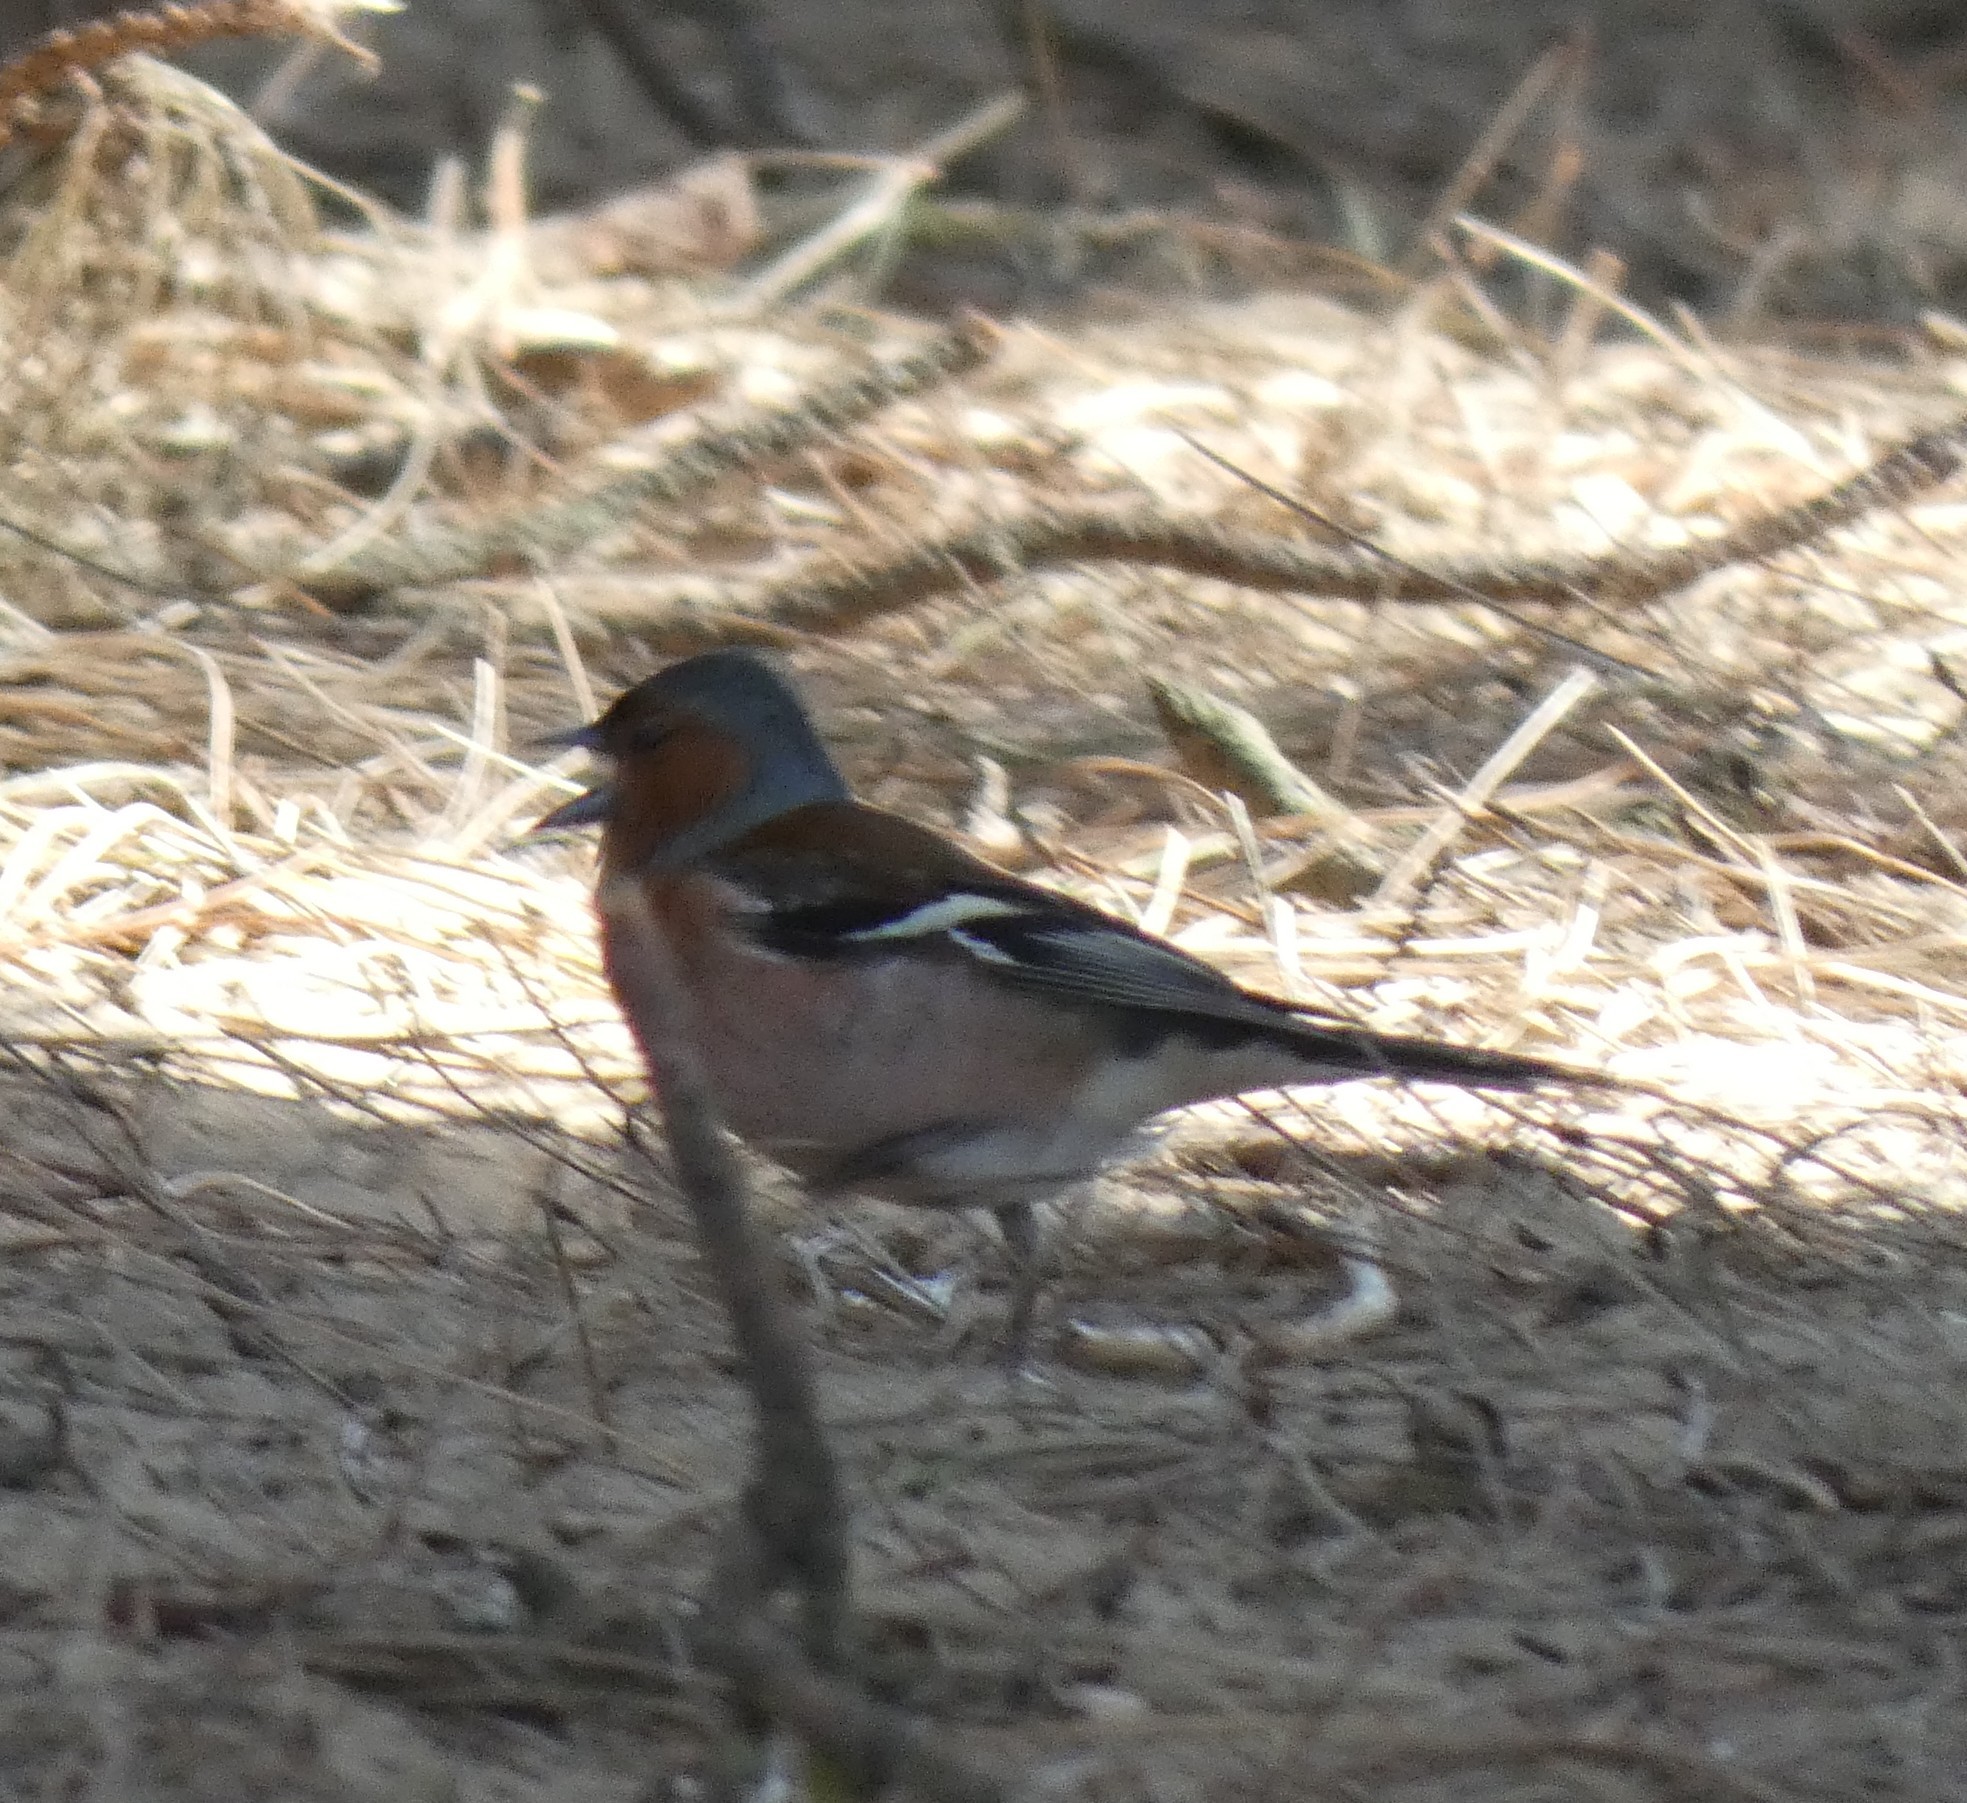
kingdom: Animalia
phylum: Chordata
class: Aves
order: Passeriformes
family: Fringillidae
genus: Fringilla
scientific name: Fringilla coelebs
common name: Common chaffinch
